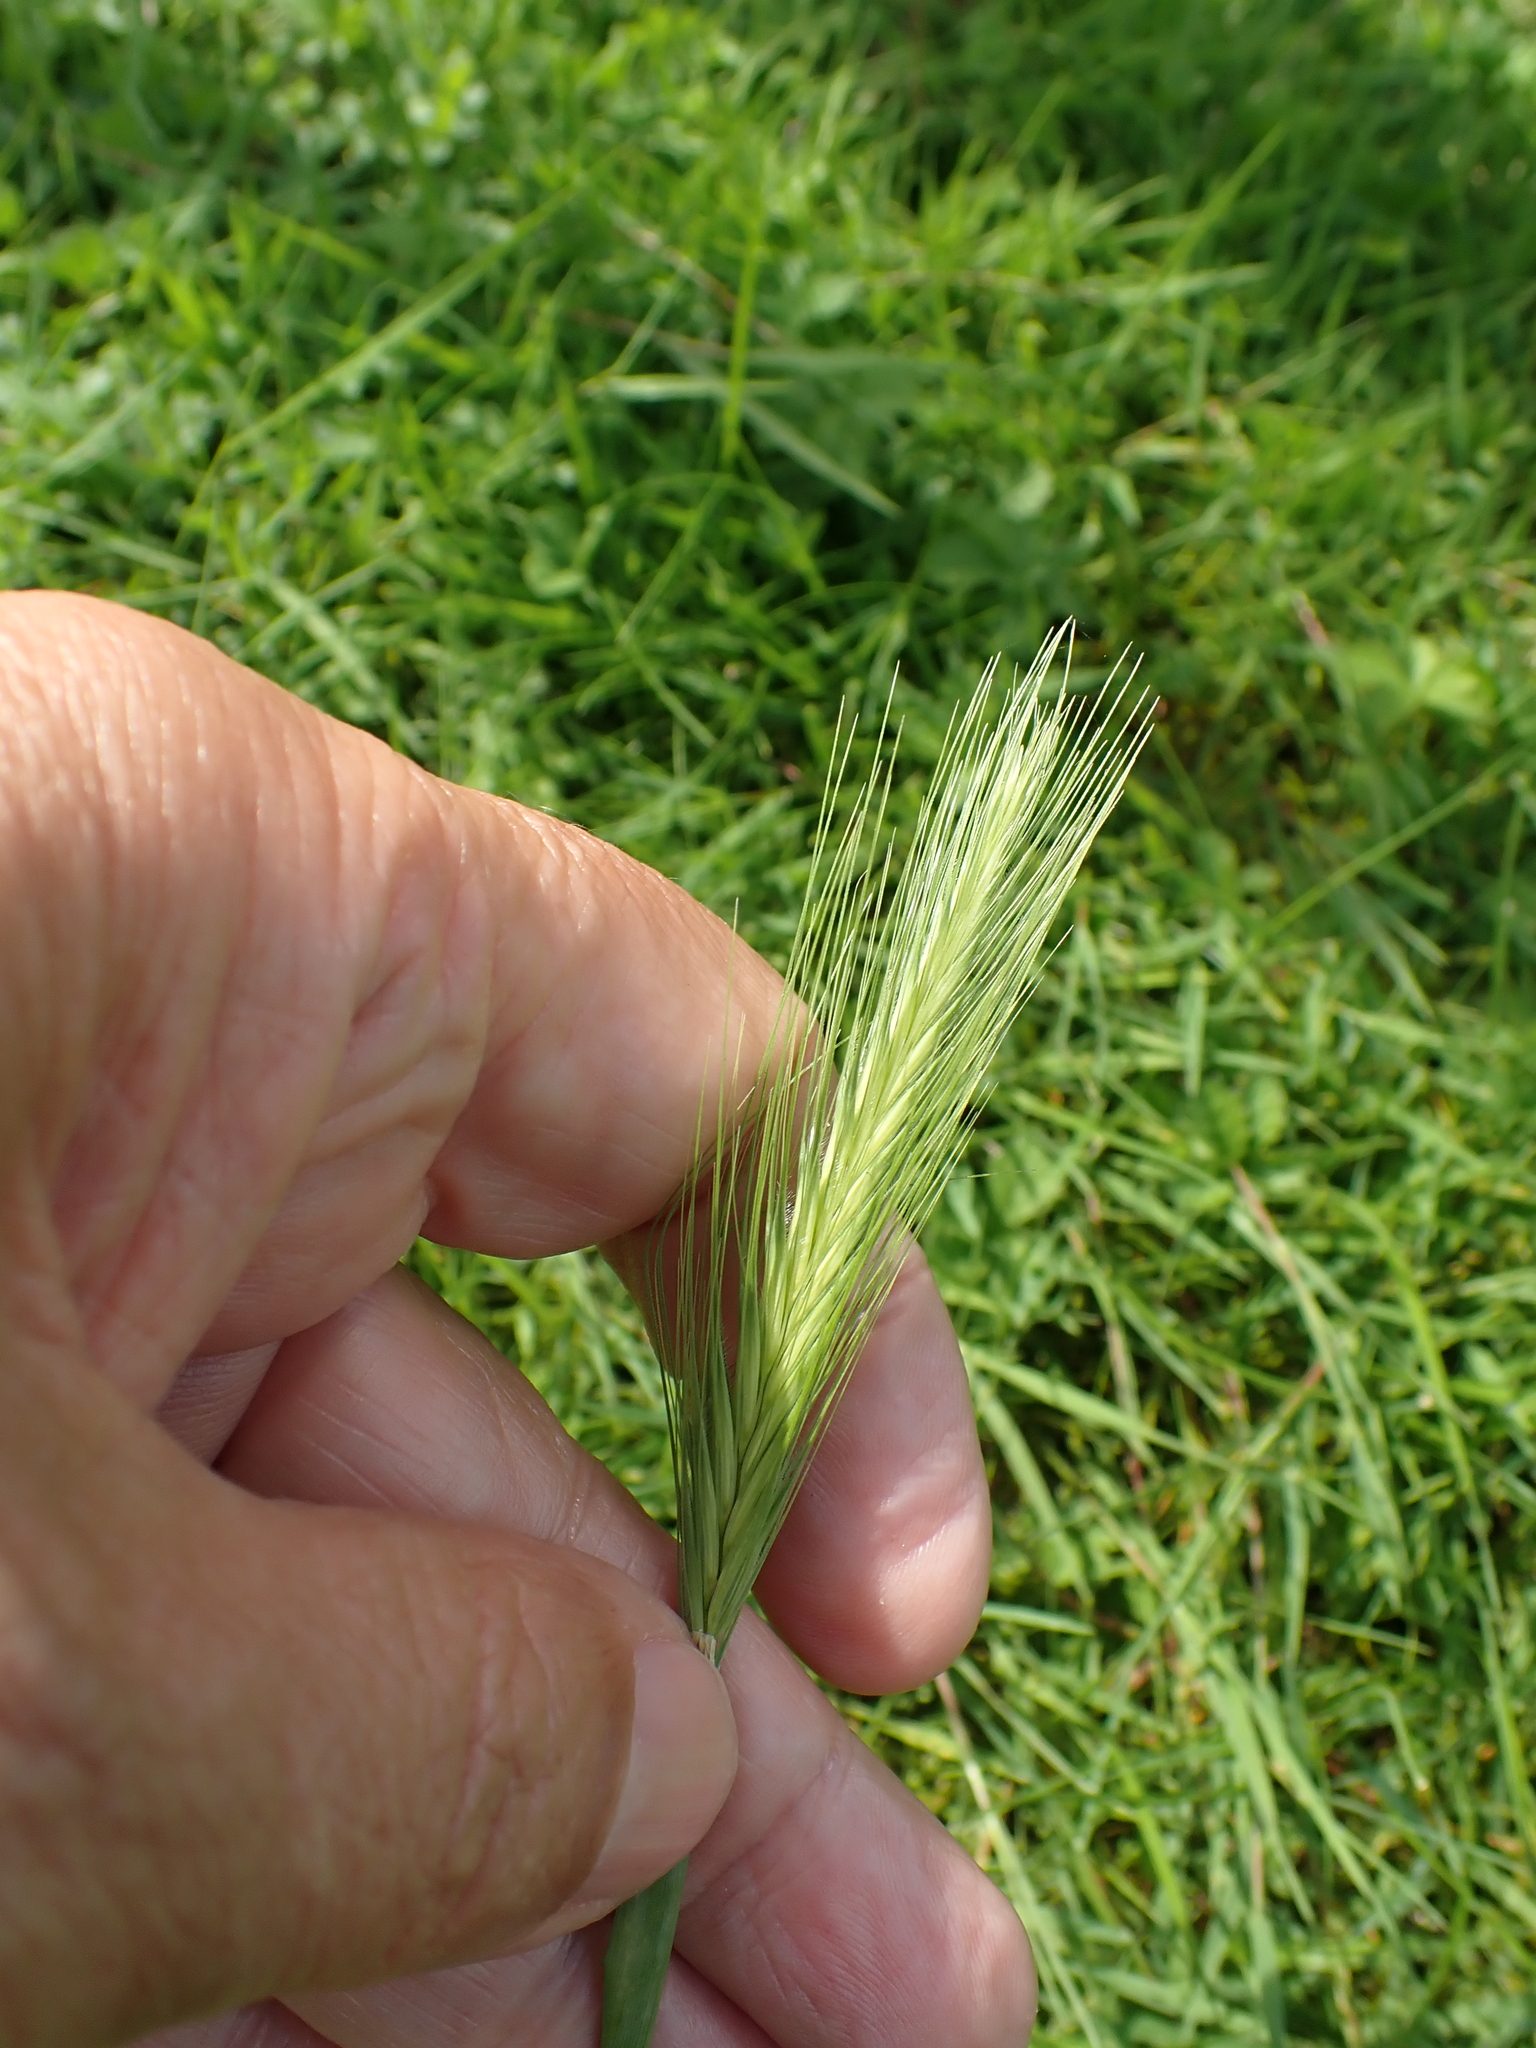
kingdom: Plantae
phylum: Tracheophyta
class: Liliopsida
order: Poales
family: Poaceae
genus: Hordeum
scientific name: Hordeum murinum
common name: Wall barley
